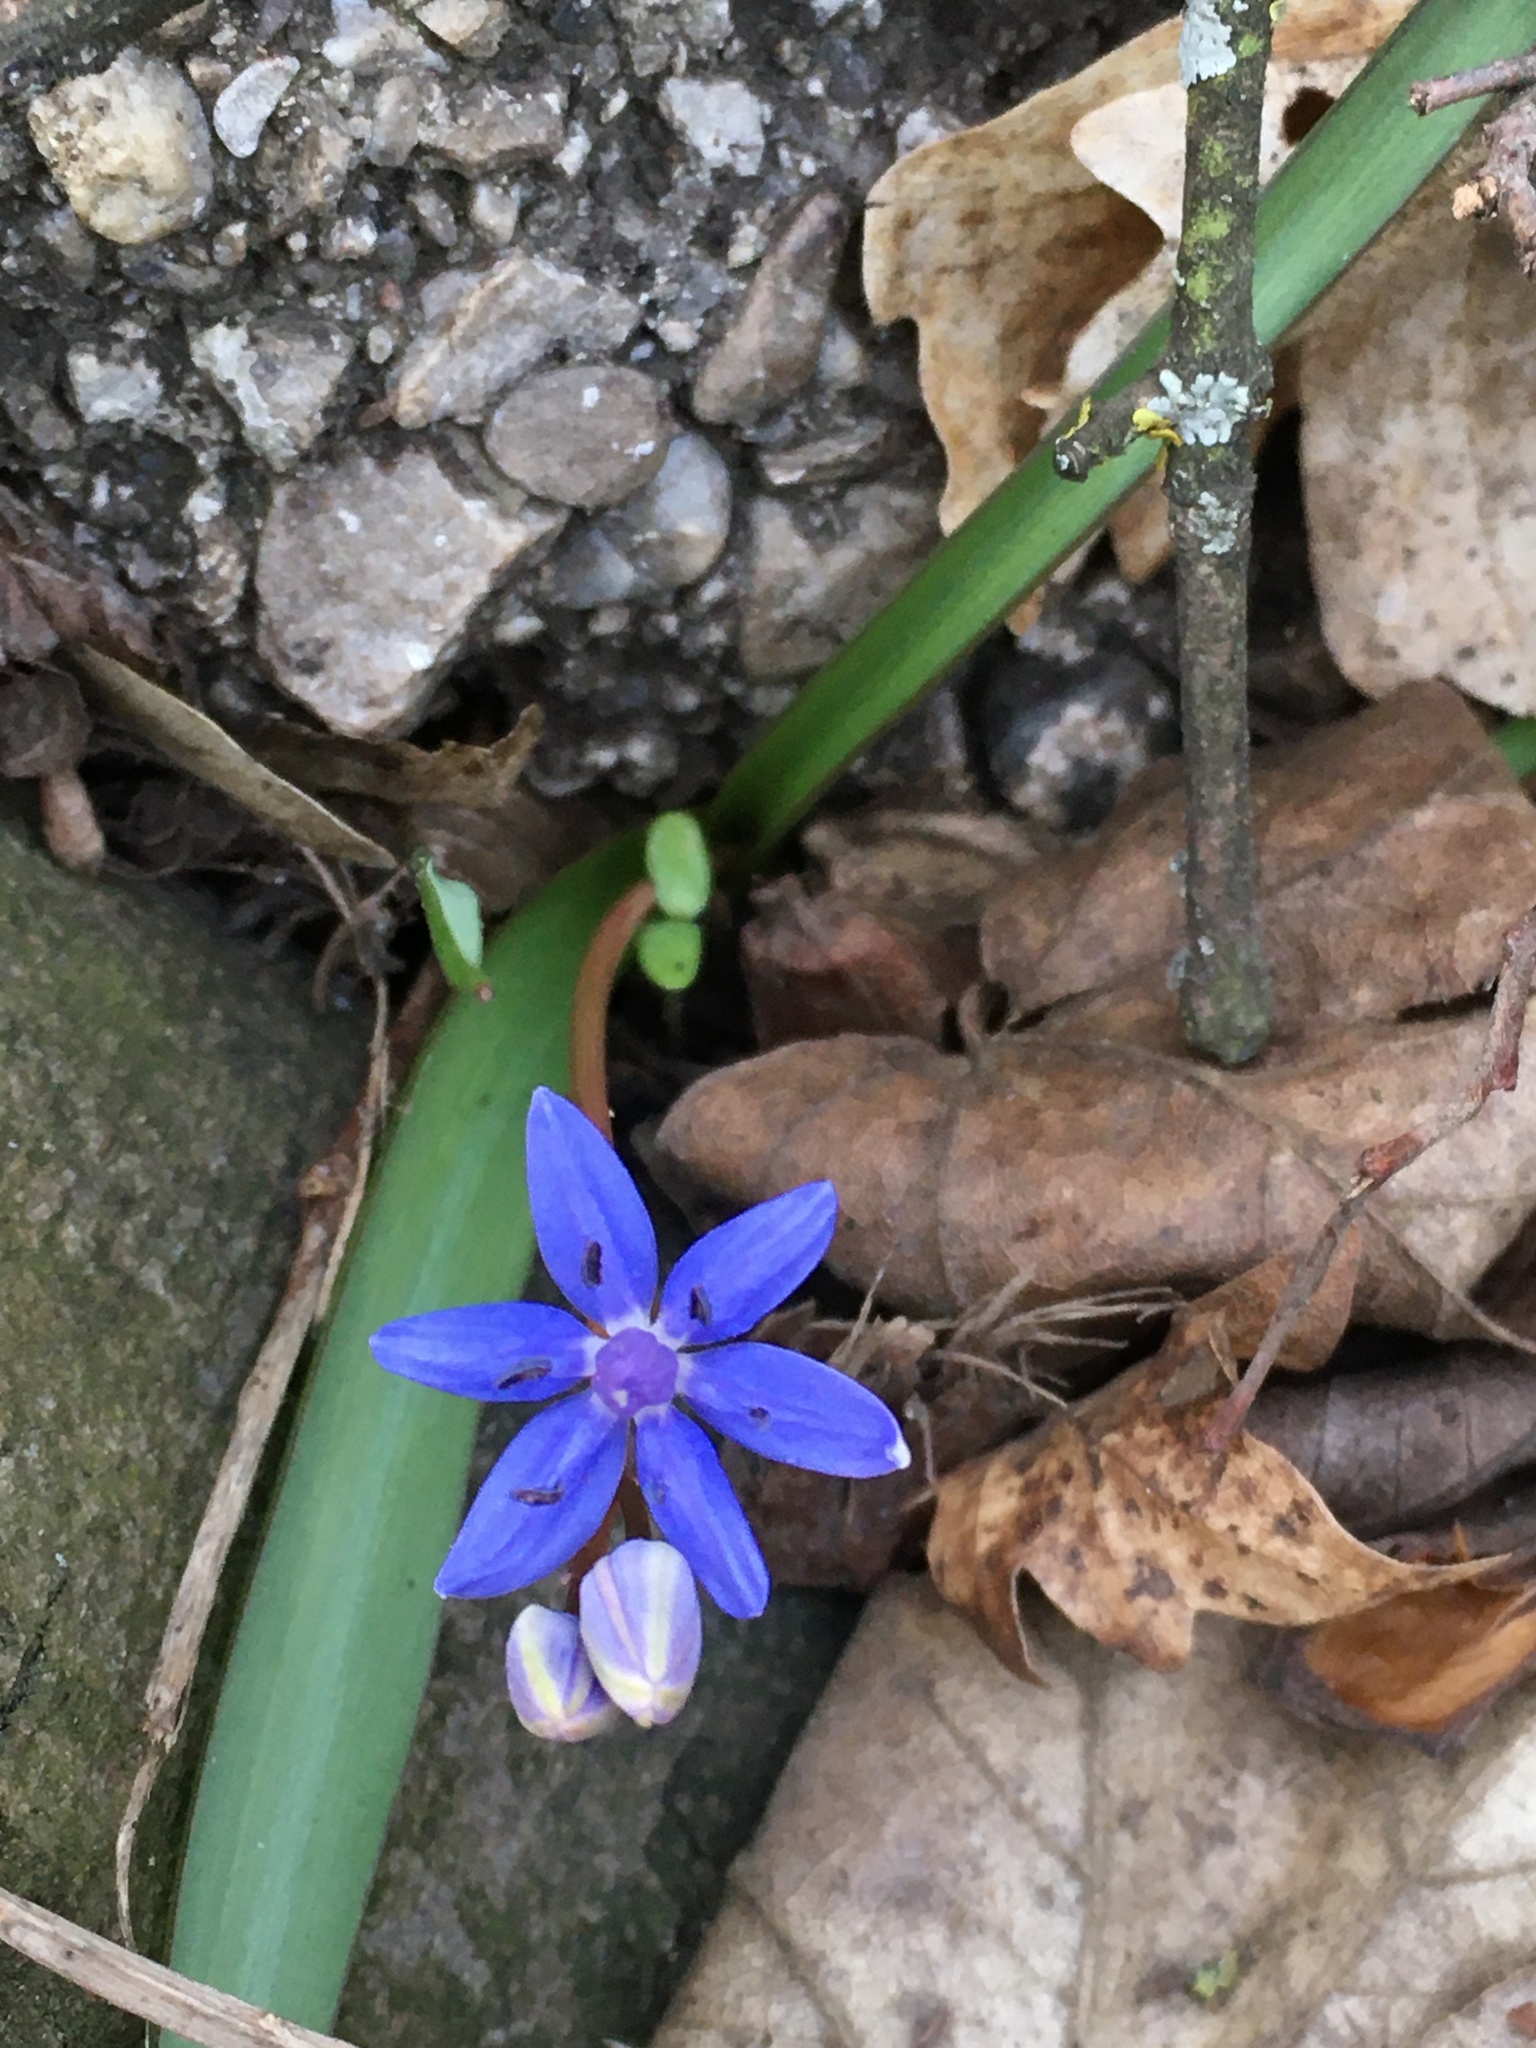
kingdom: Plantae
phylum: Tracheophyta
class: Liliopsida
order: Asparagales
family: Asparagaceae
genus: Scilla
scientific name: Scilla vindobonensis
